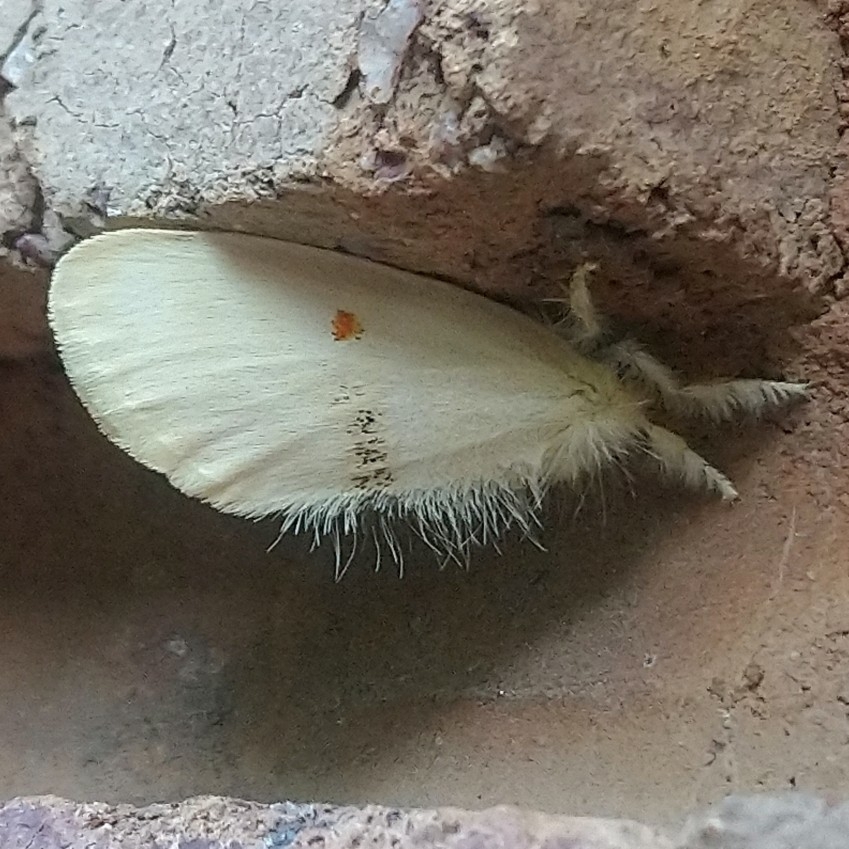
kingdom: Animalia
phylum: Arthropoda
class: Insecta
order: Lepidoptera
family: Erebidae
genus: Euproctis
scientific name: Euproctis bicolor
